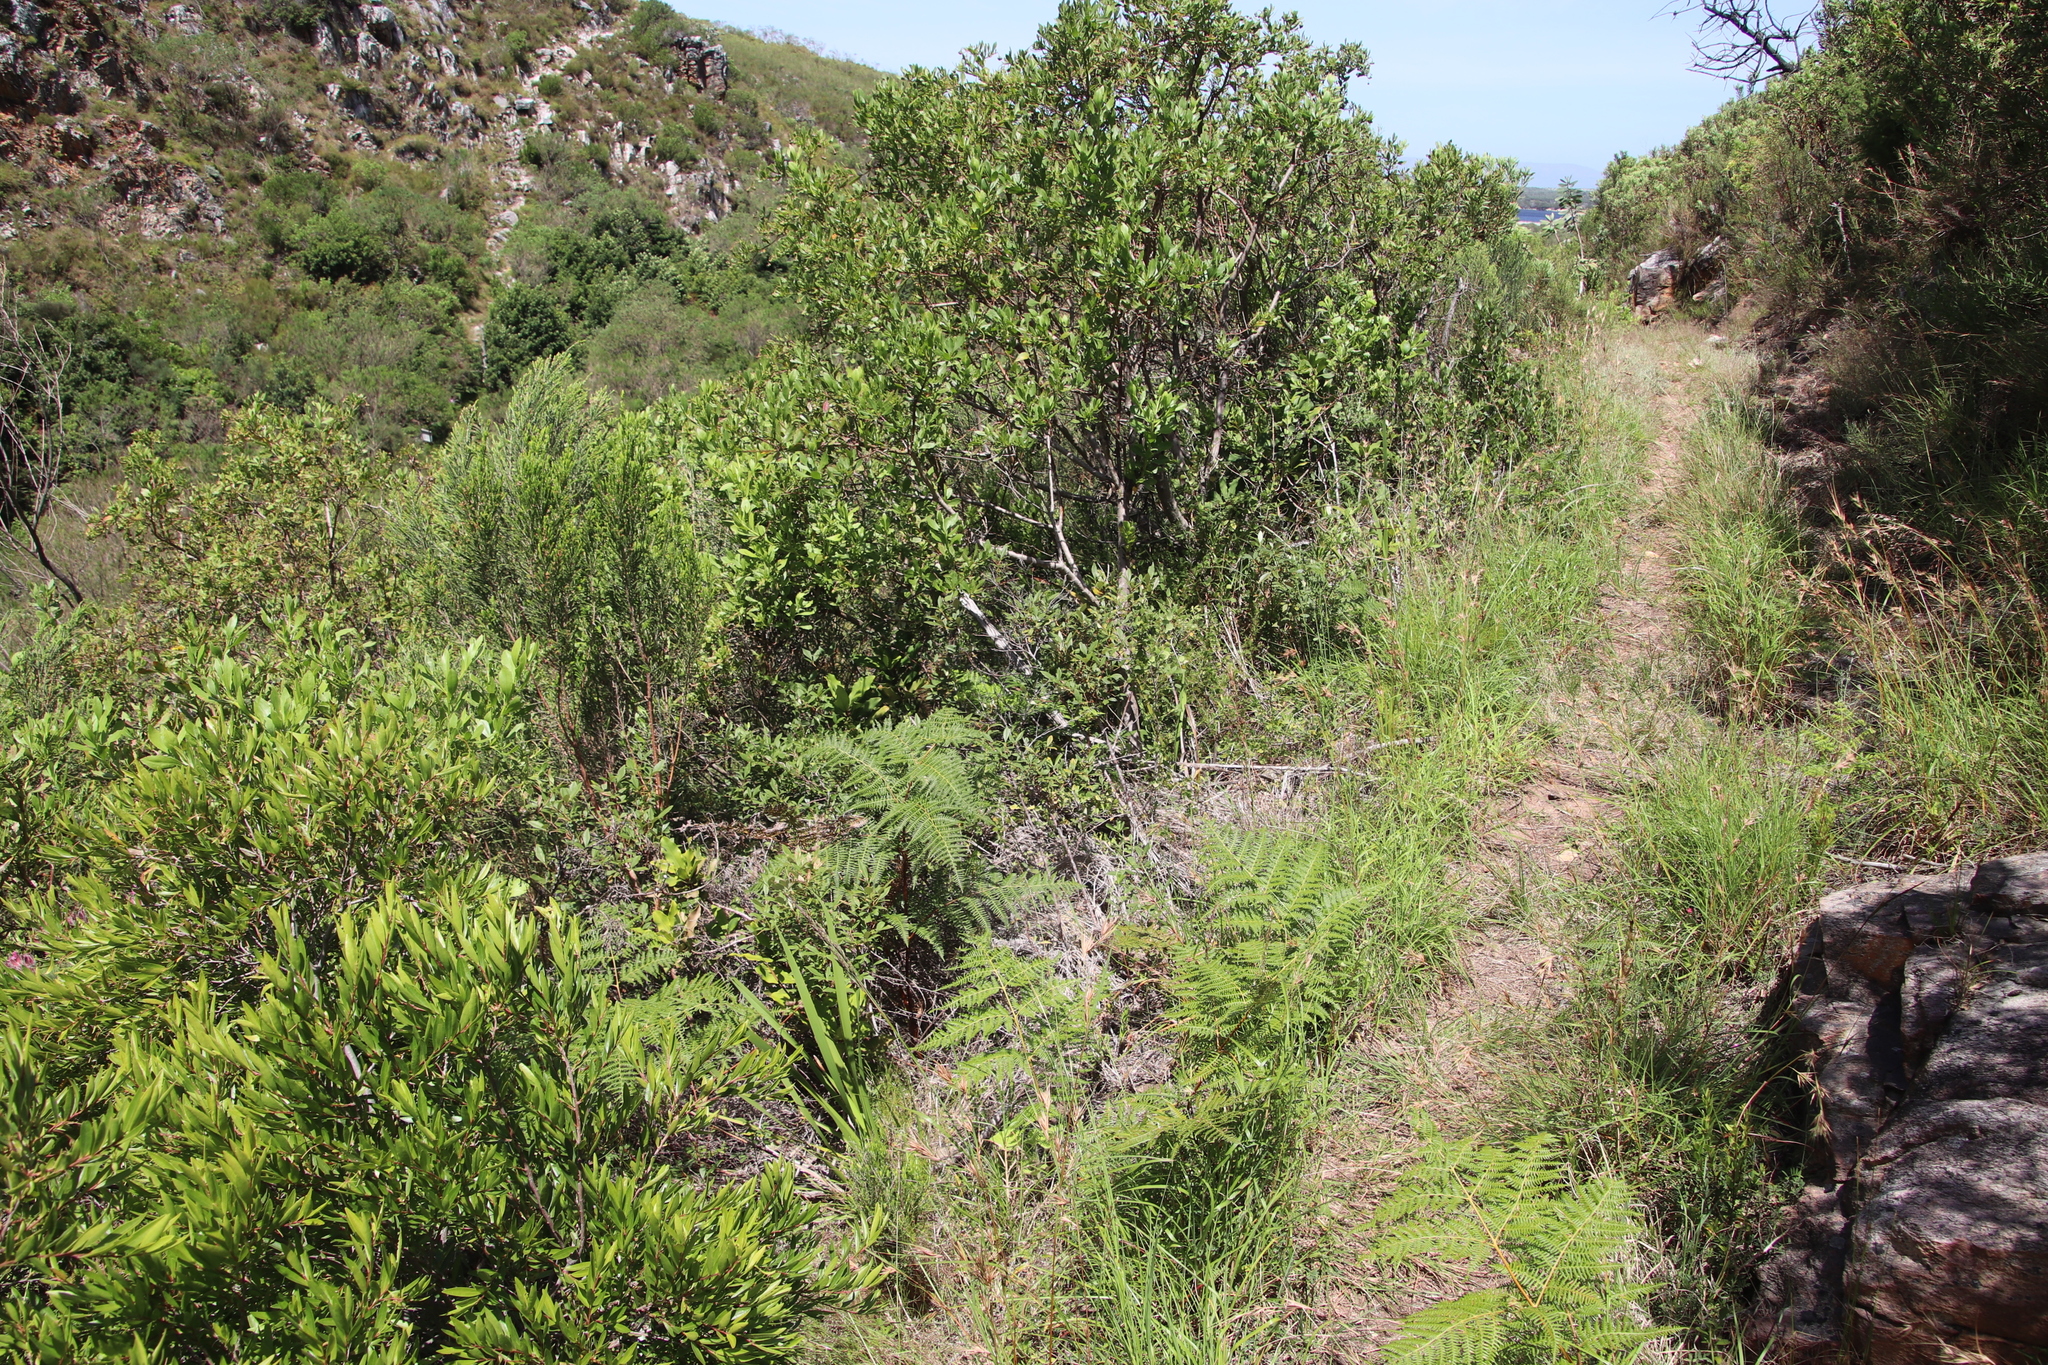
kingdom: Plantae
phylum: Tracheophyta
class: Magnoliopsida
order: Sapindales
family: Anacardiaceae
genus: Searsia
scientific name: Searsia tomentosa
